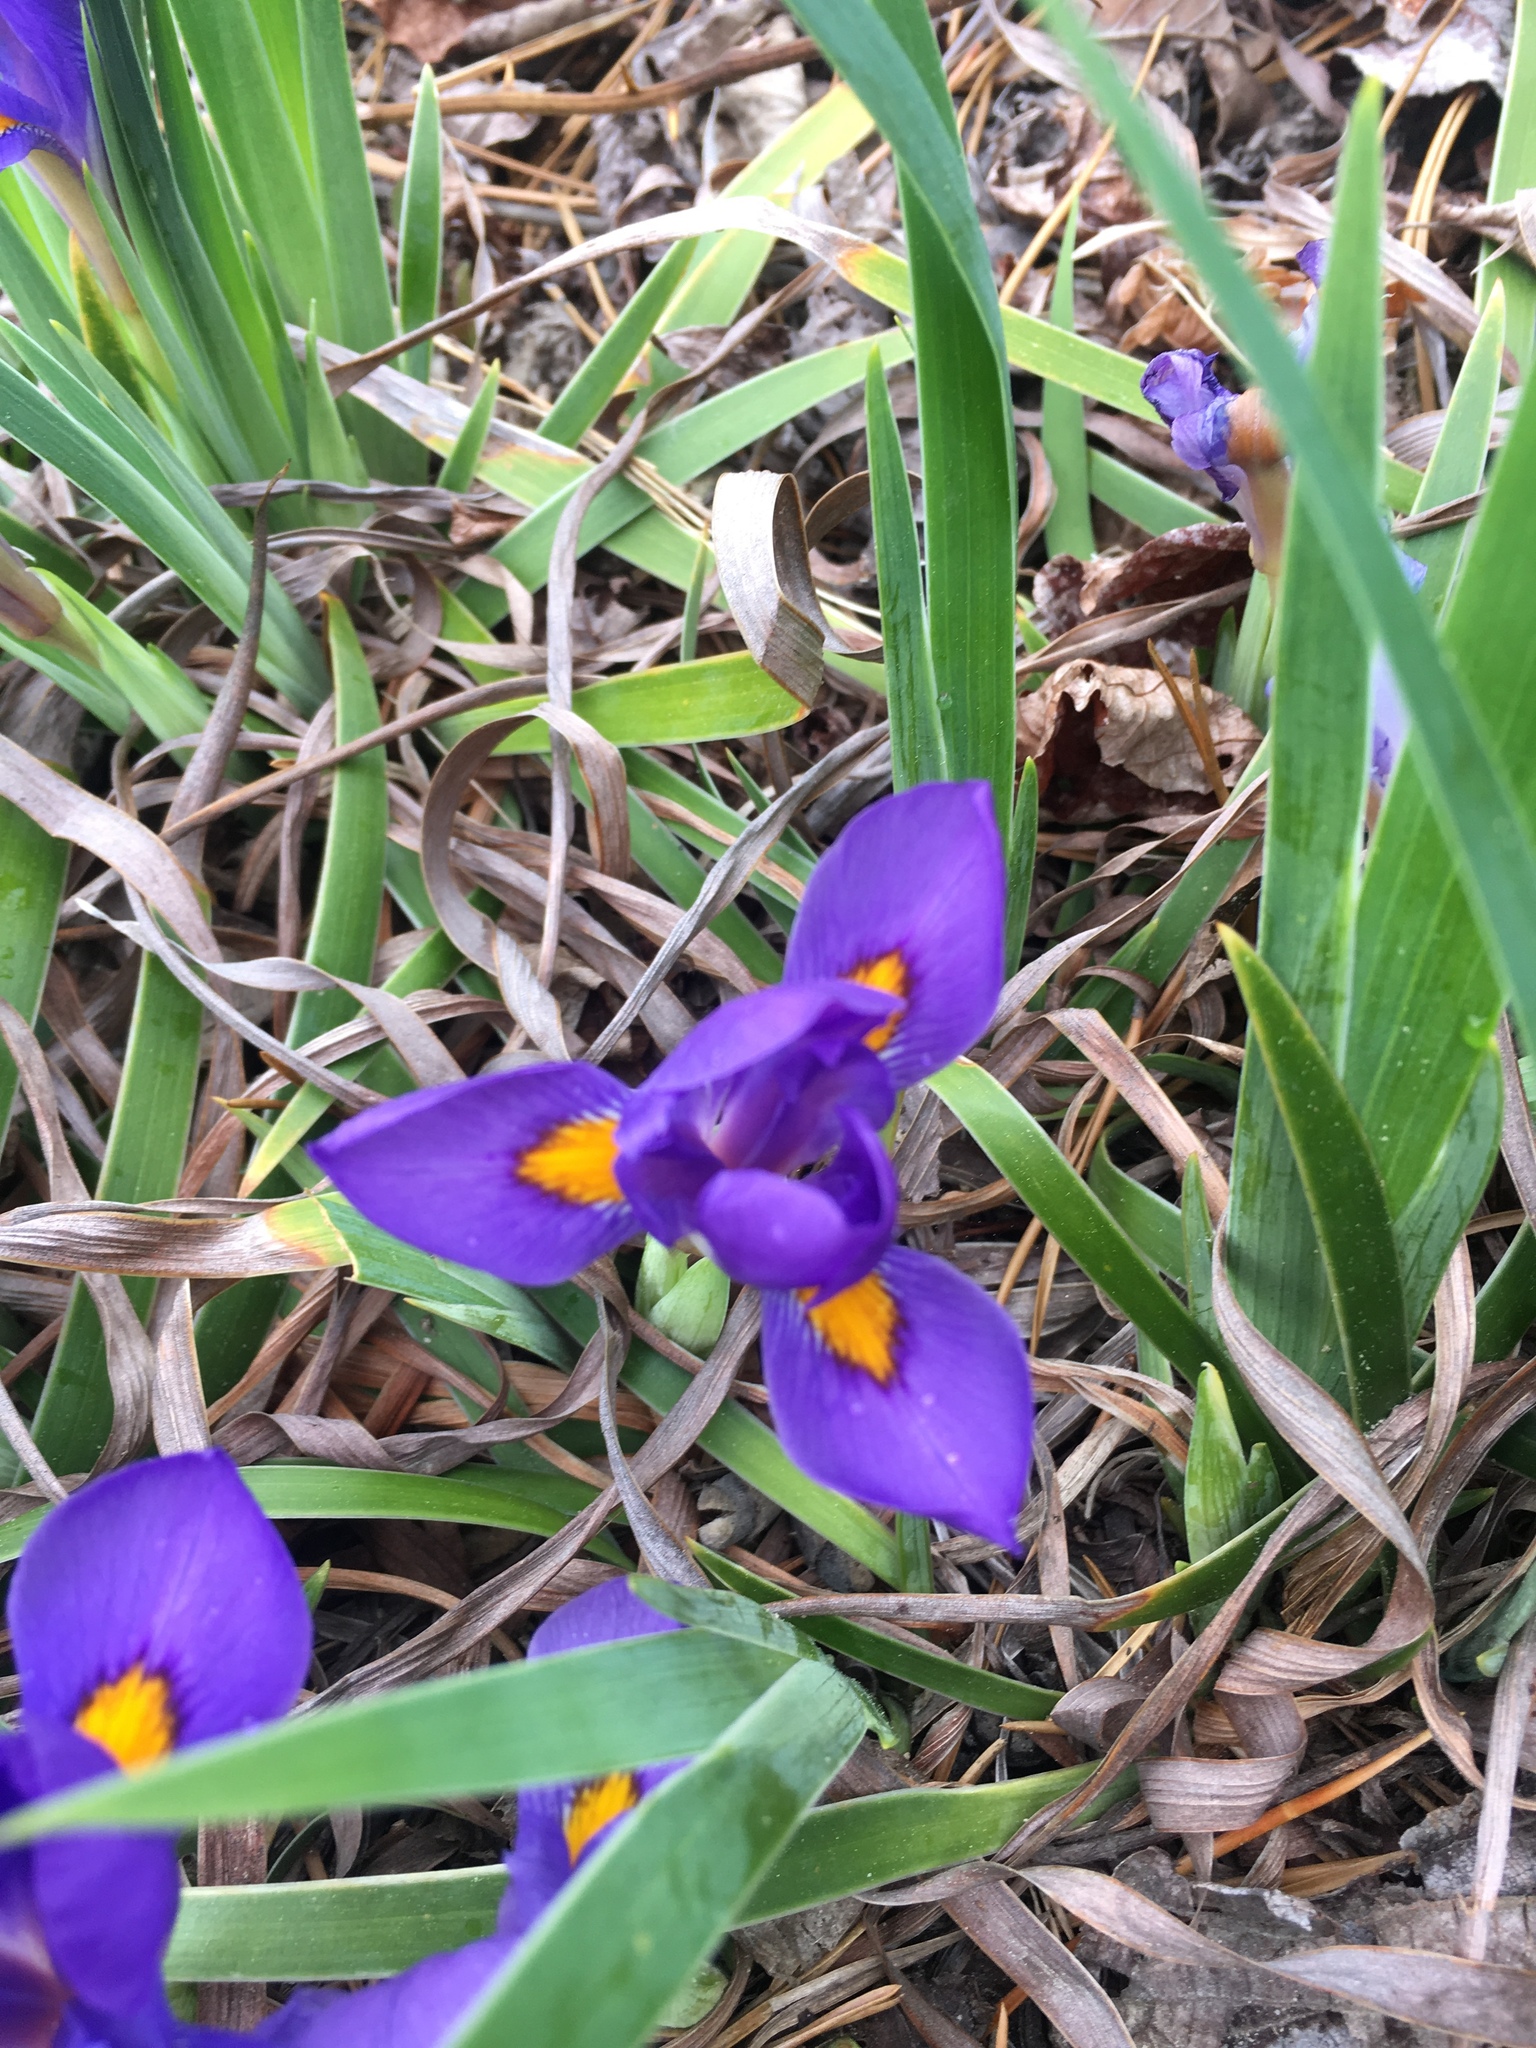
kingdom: Plantae
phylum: Tracheophyta
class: Liliopsida
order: Asparagales
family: Iridaceae
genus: Iris
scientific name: Iris verna
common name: Dwarf iris
